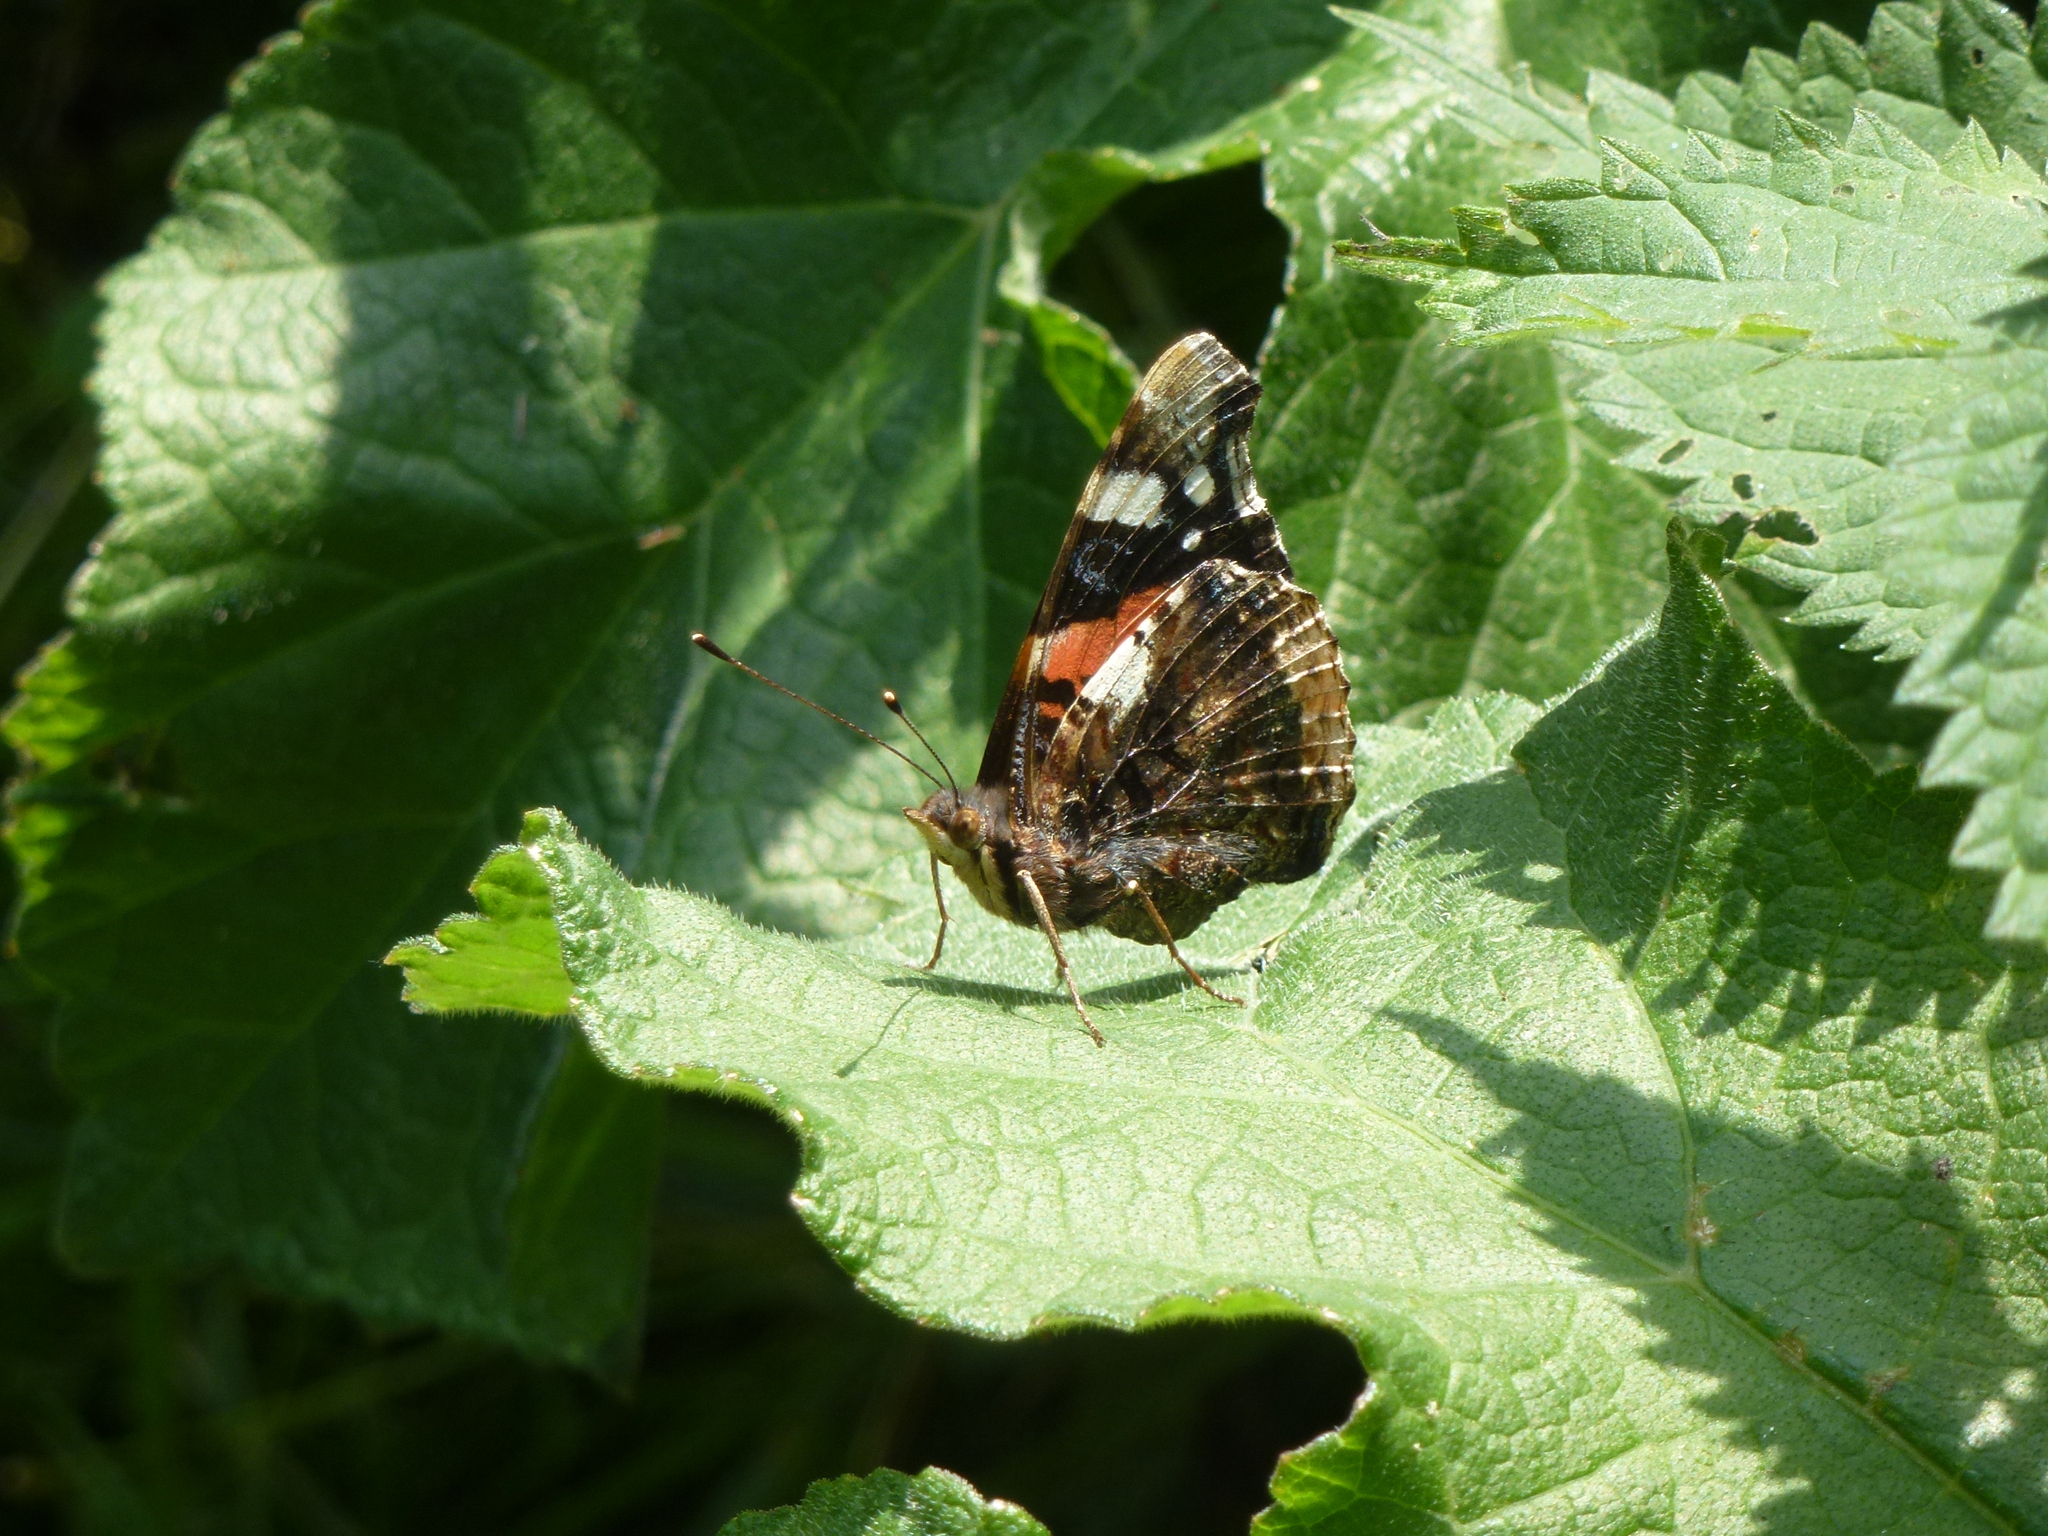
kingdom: Animalia
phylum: Arthropoda
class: Insecta
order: Lepidoptera
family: Nymphalidae
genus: Vanessa
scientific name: Vanessa atalanta
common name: Red admiral
